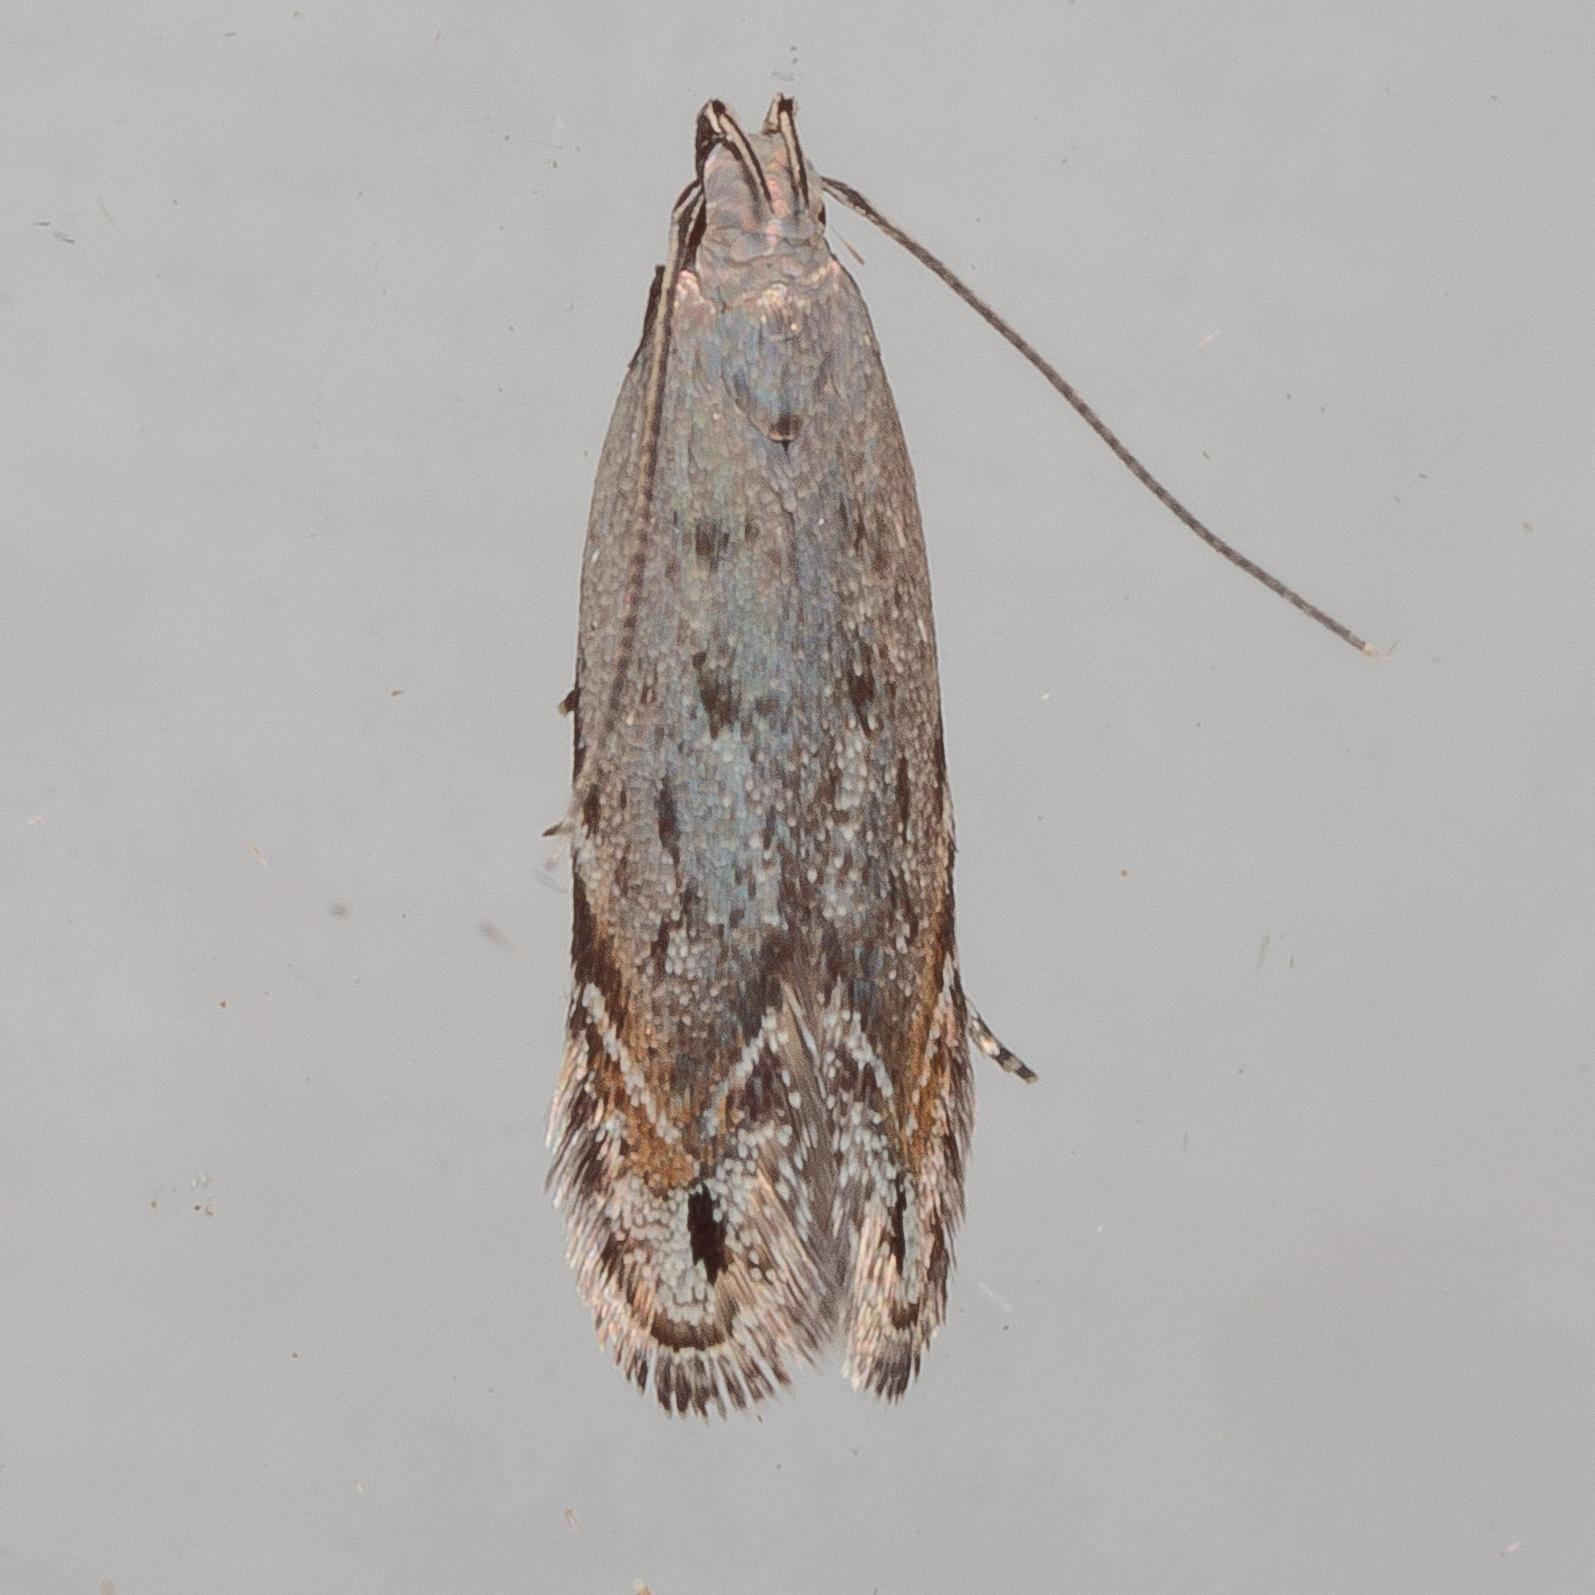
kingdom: Animalia
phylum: Arthropoda
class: Insecta
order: Lepidoptera
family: Gelechiidae
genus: Battaristis
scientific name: Battaristis concinnusella
